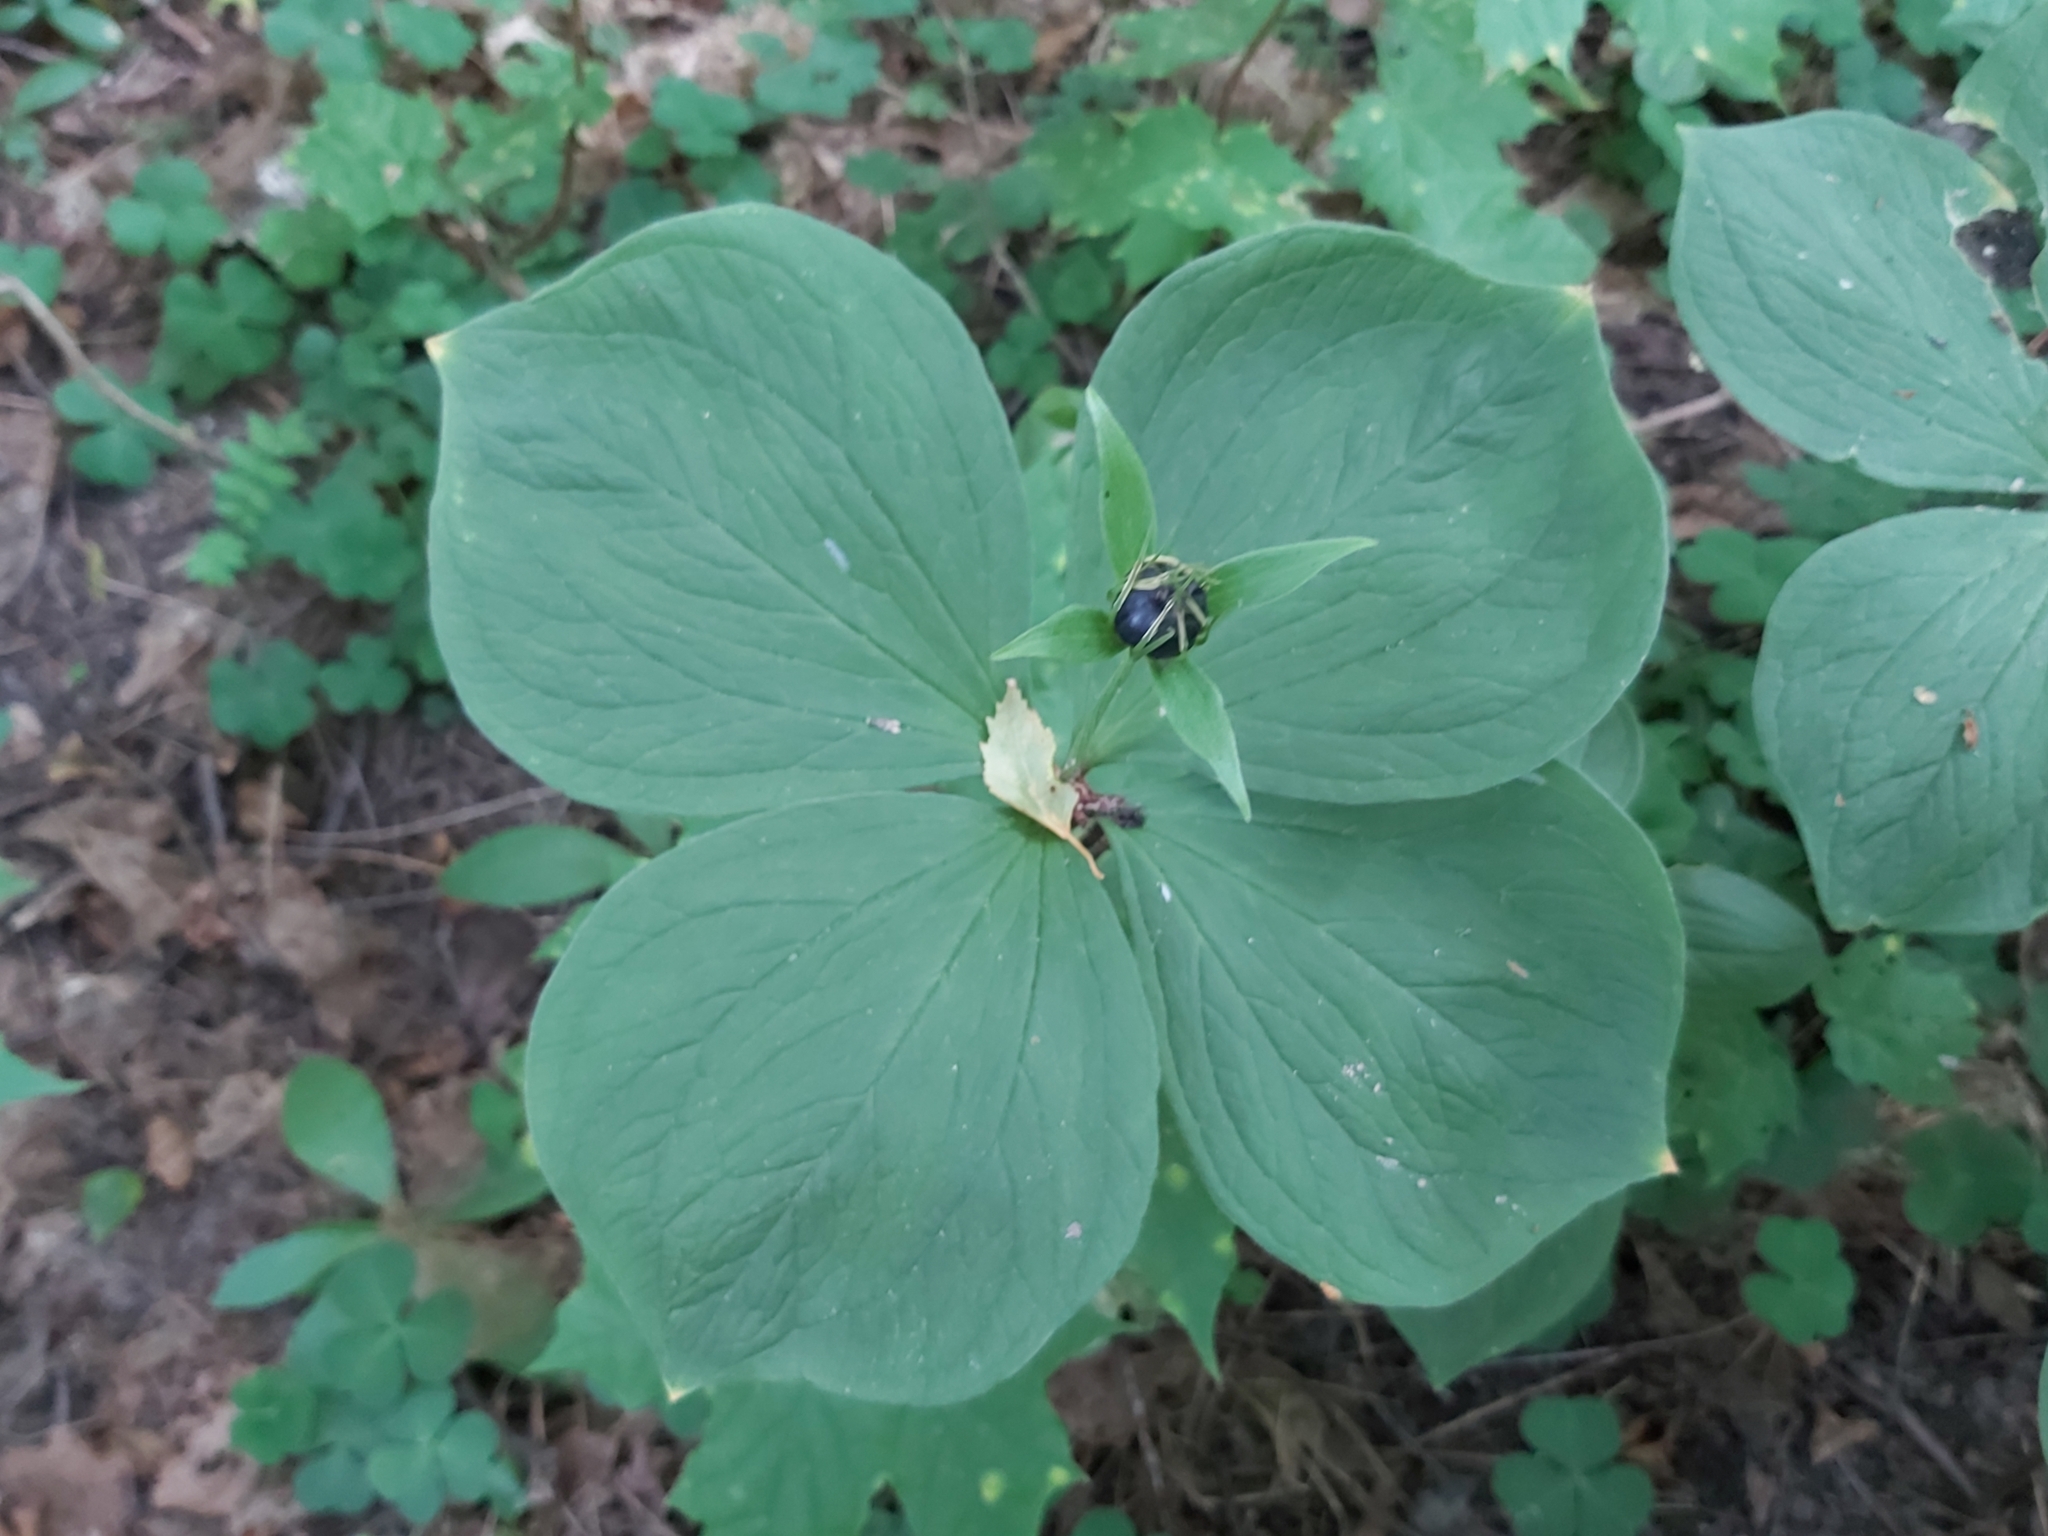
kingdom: Plantae
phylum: Tracheophyta
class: Liliopsida
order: Liliales
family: Melanthiaceae
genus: Paris
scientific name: Paris quadrifolia
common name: Herb-paris
